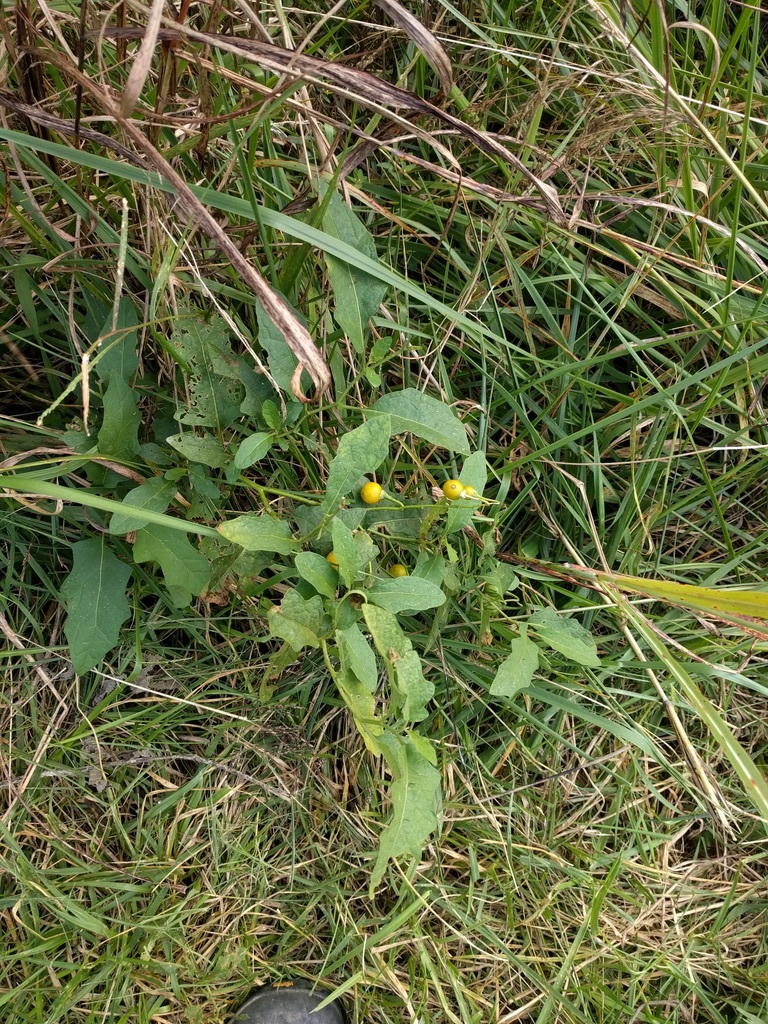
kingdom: Plantae
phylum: Tracheophyta
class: Magnoliopsida
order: Solanales
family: Solanaceae
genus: Solanum
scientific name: Solanum carolinense
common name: Horse-nettle
